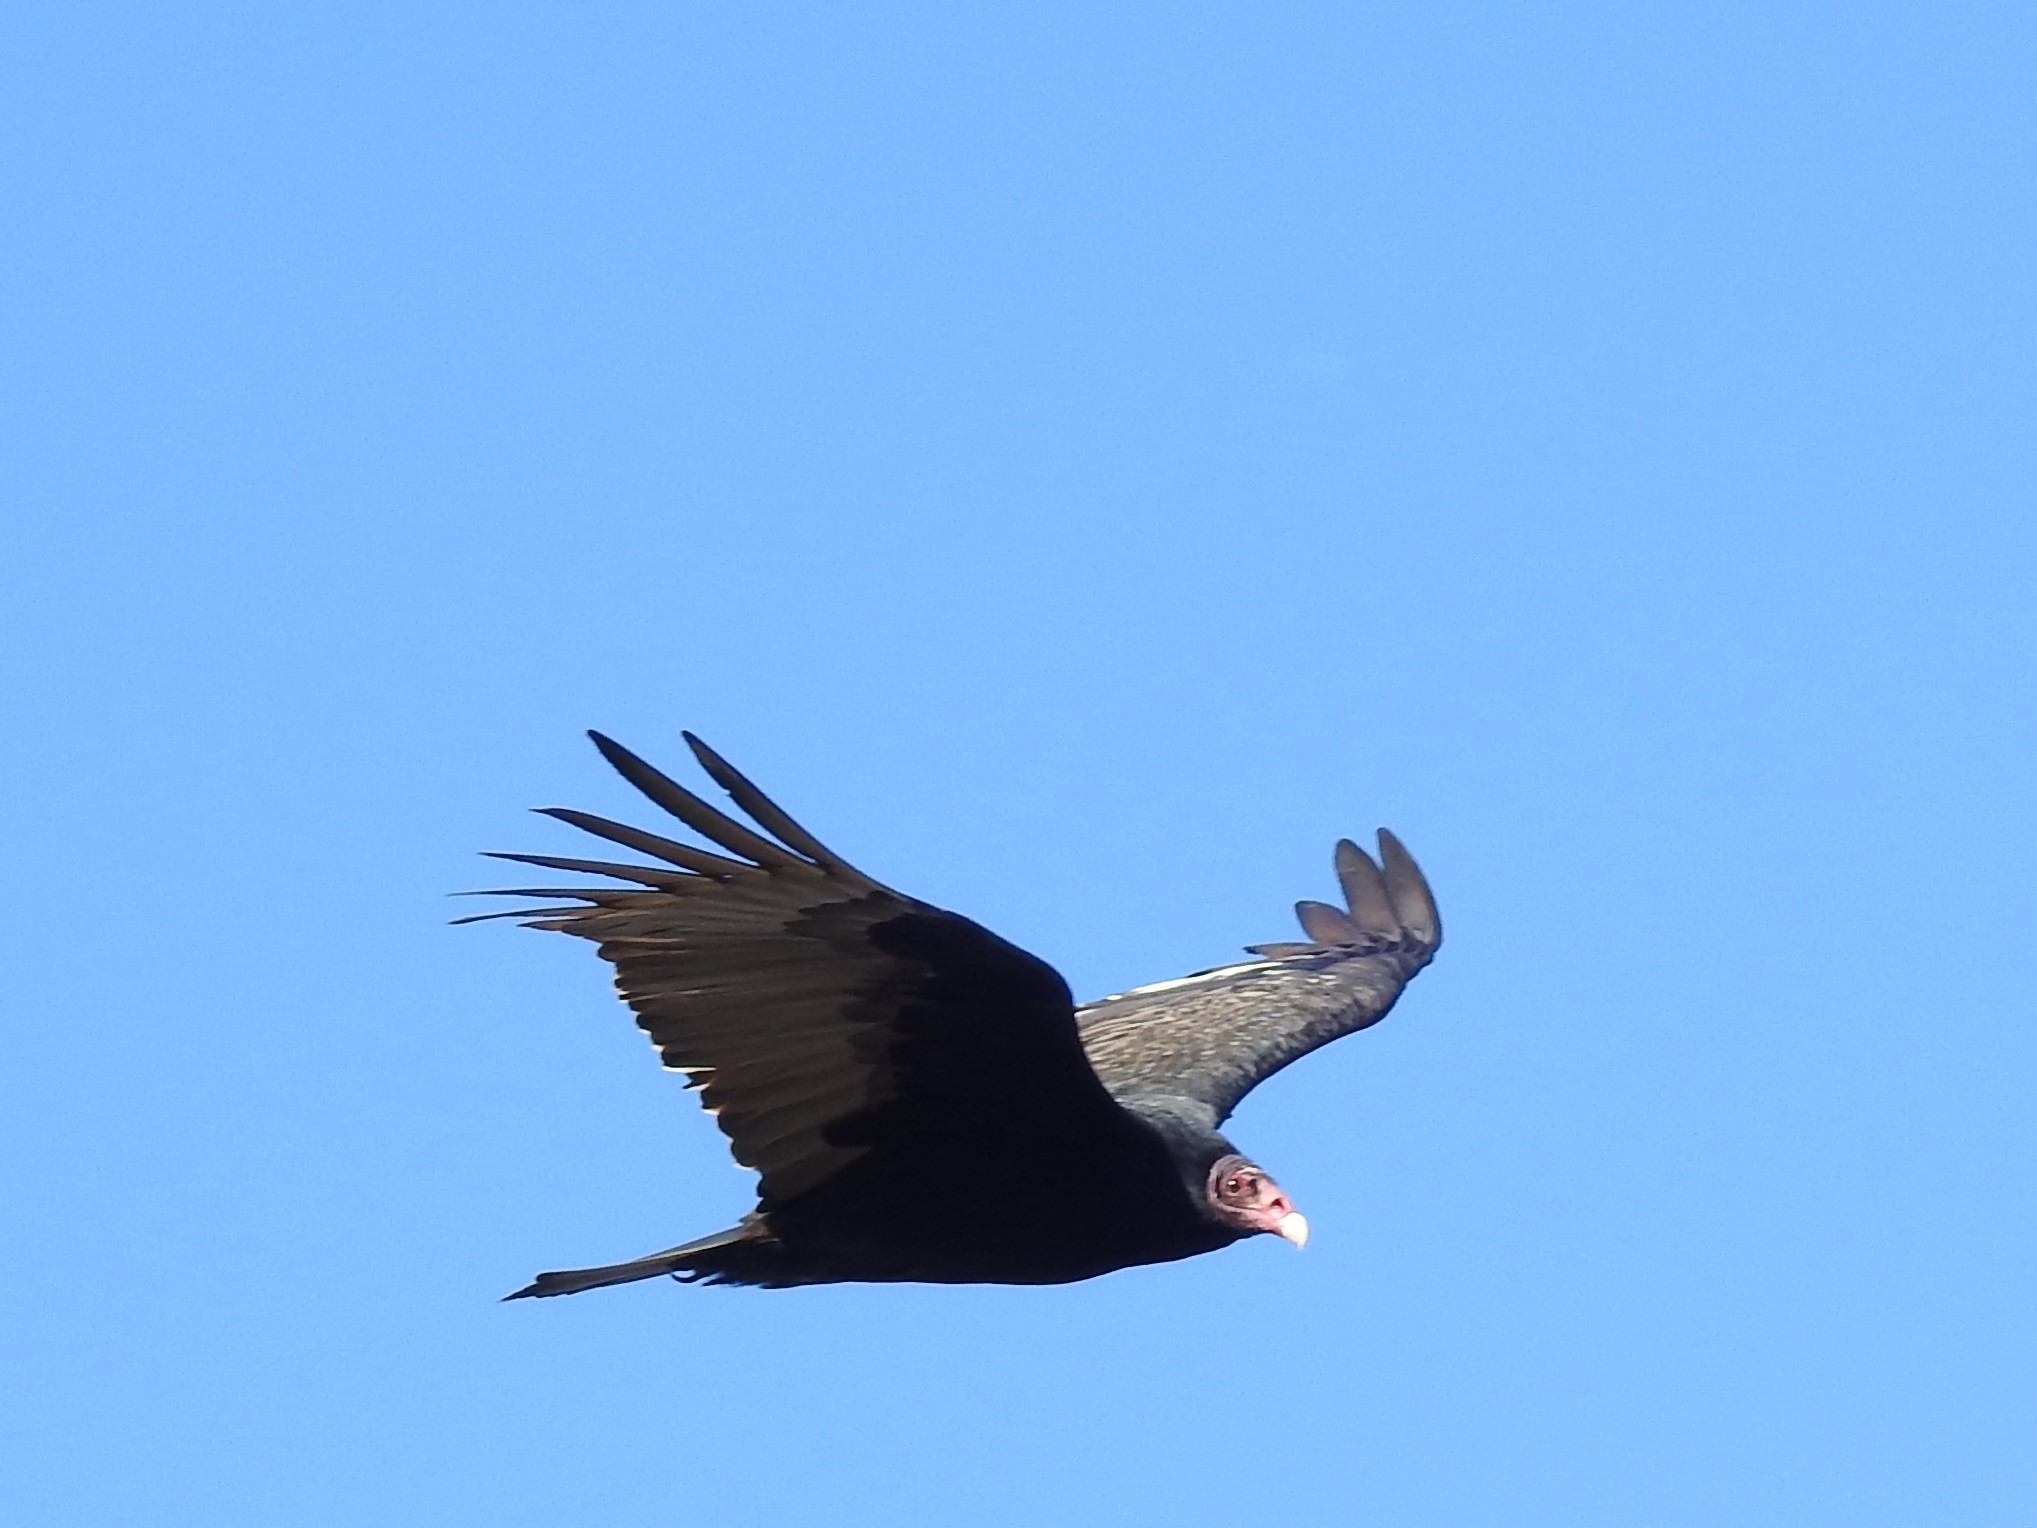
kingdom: Animalia
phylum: Chordata
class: Aves
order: Accipitriformes
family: Cathartidae
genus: Cathartes
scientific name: Cathartes aura
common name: Turkey vulture
